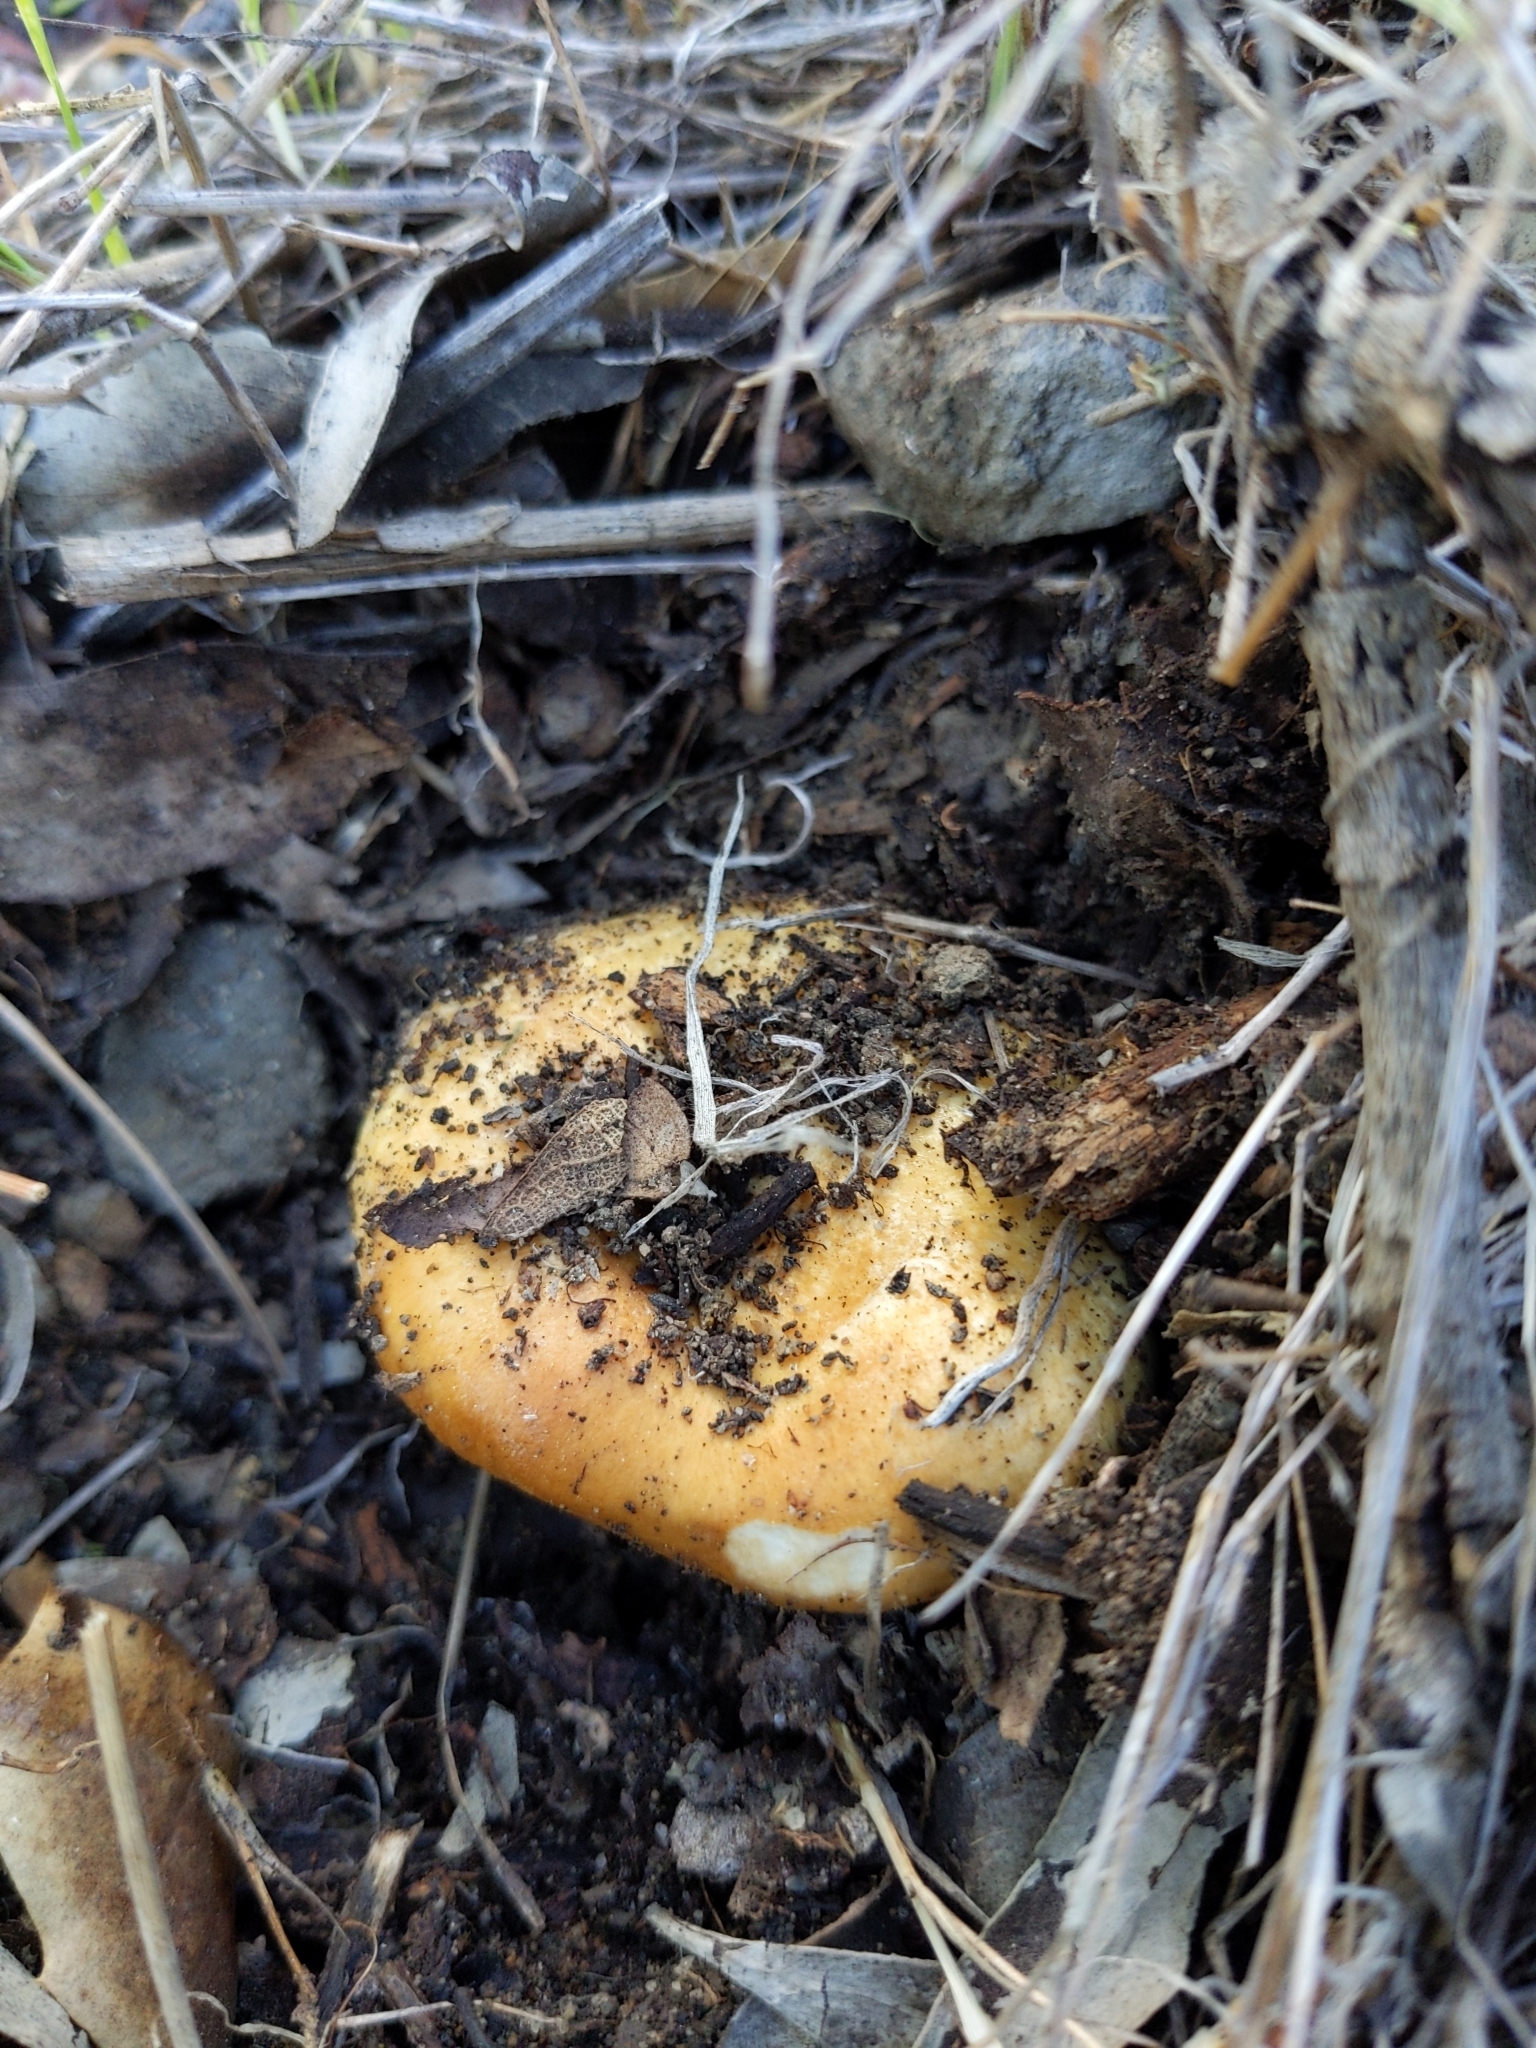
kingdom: Fungi
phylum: Basidiomycota
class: Agaricomycetes
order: Russulales
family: Russulaceae
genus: Lactarius
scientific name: Lactarius alnicola
